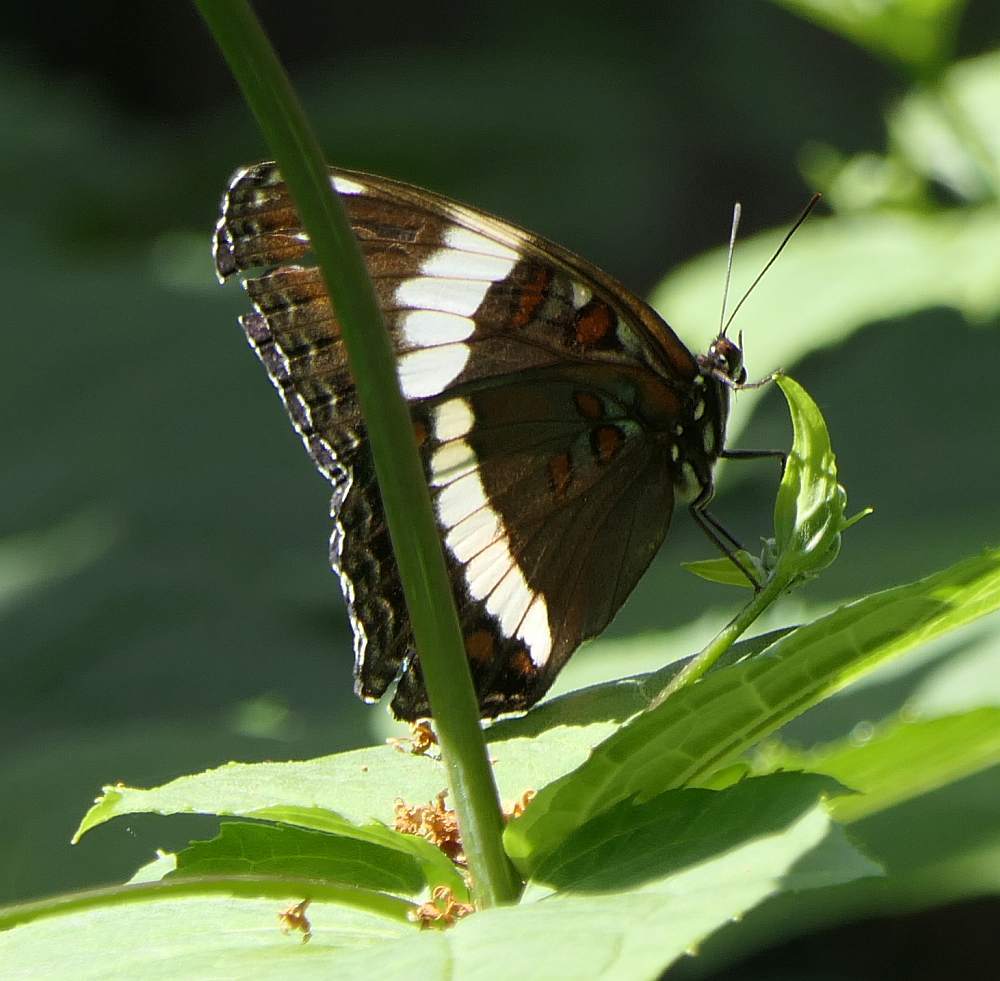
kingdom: Animalia
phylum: Arthropoda
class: Insecta
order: Lepidoptera
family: Nymphalidae
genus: Limenitis
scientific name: Limenitis arthemis
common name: Red-spotted admiral
